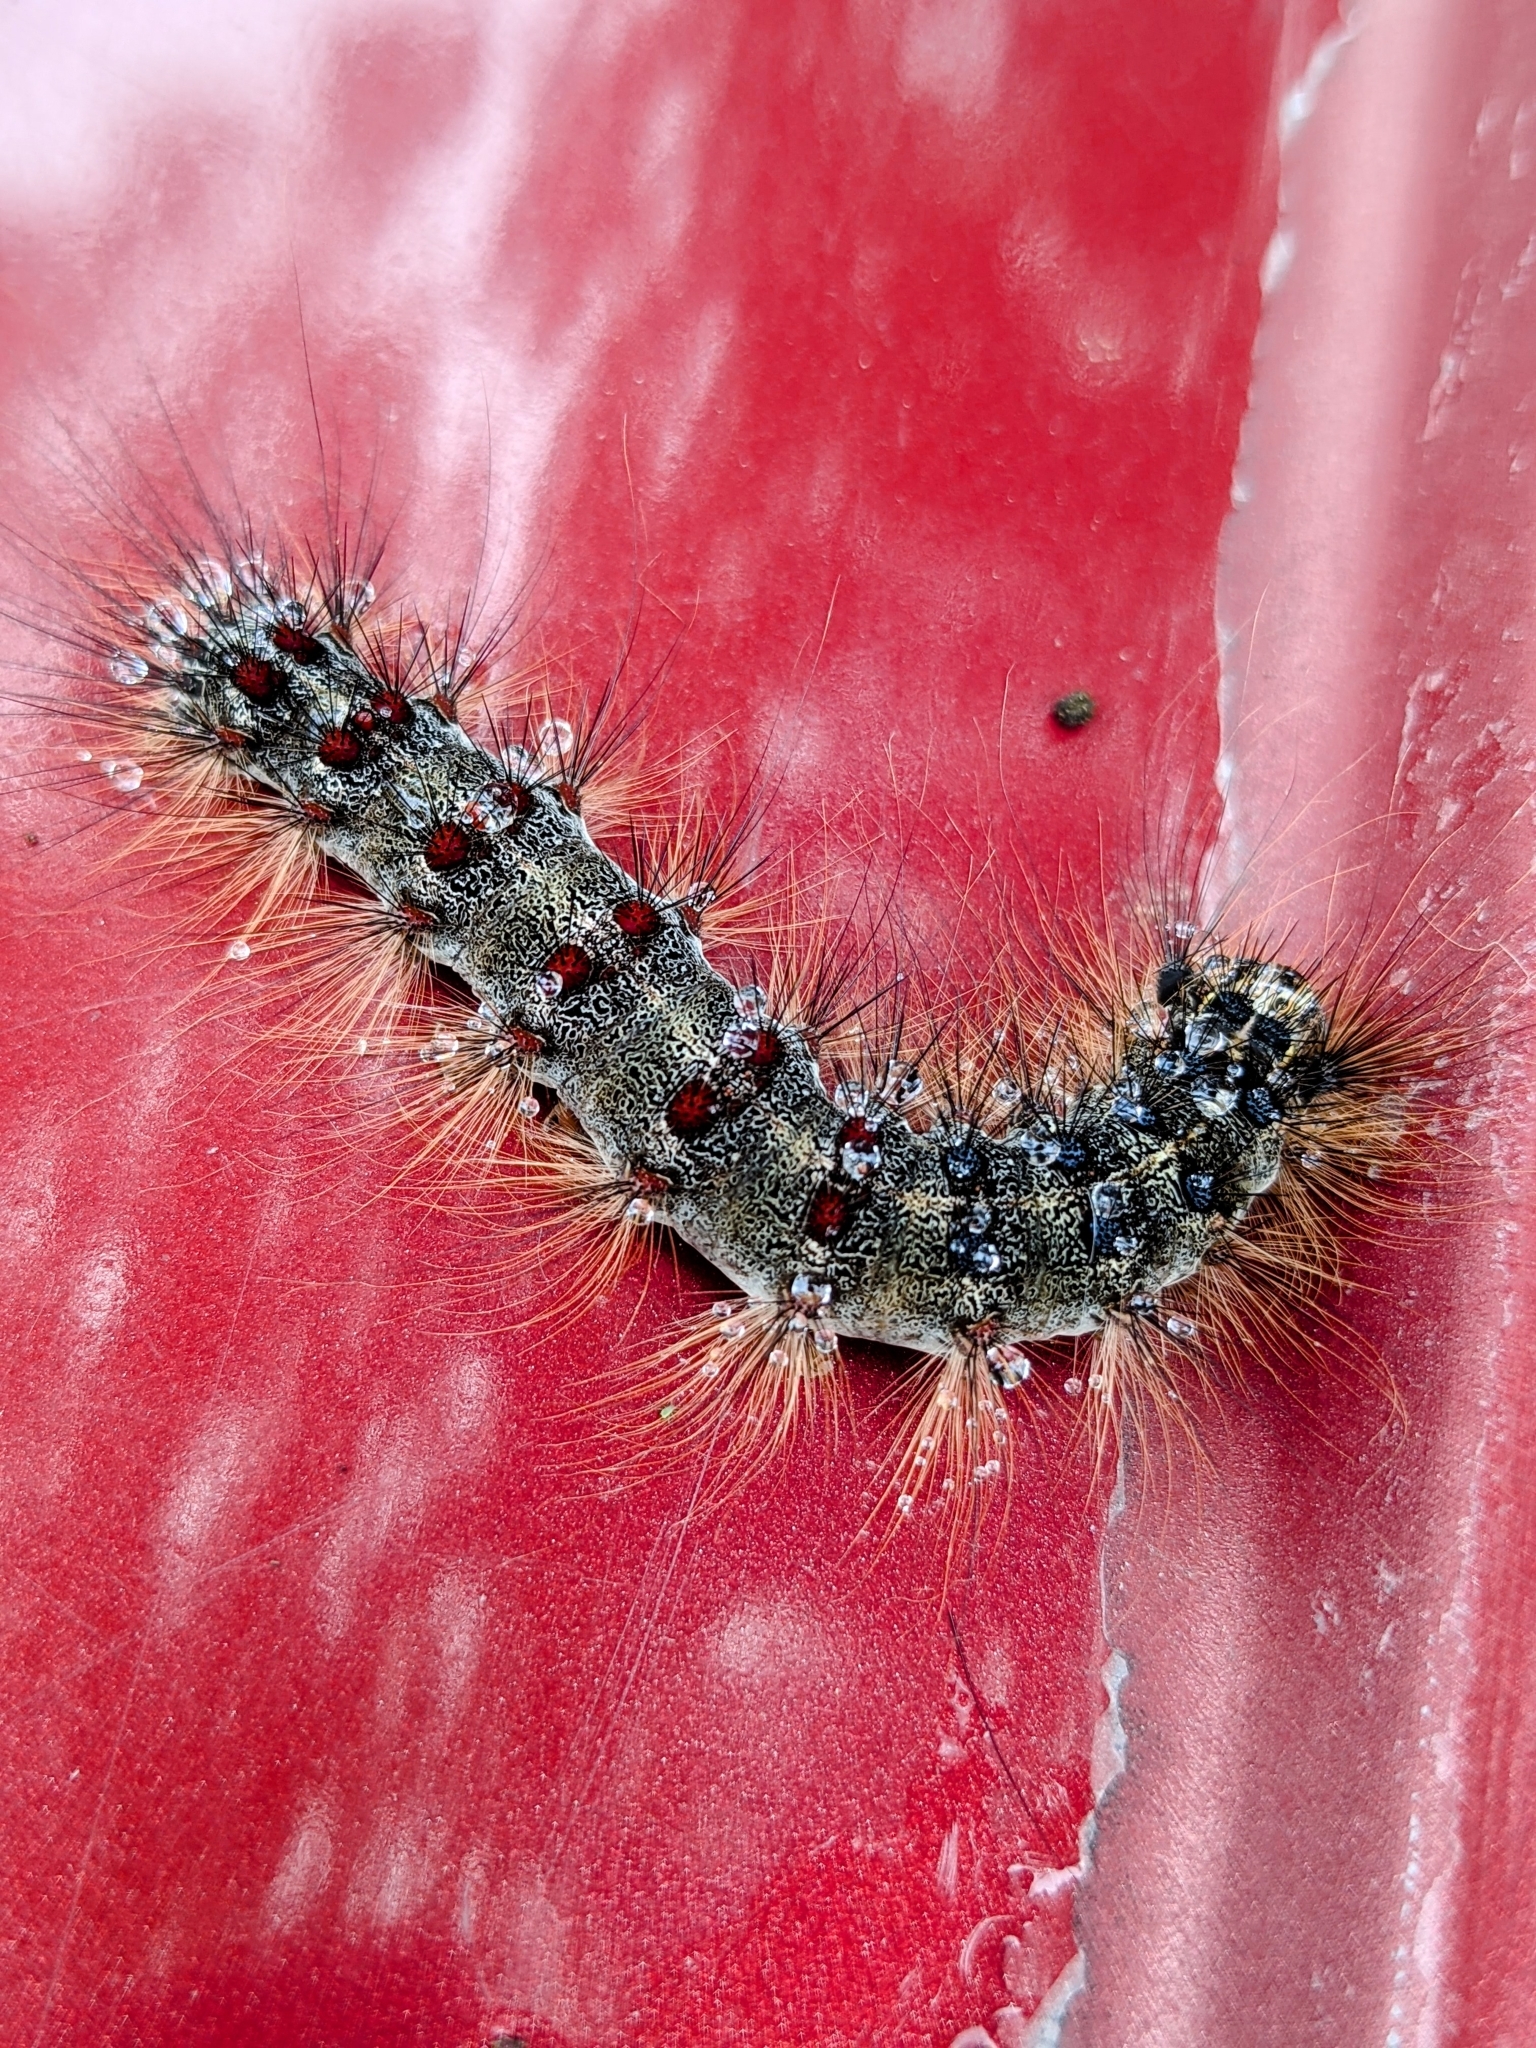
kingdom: Animalia
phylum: Arthropoda
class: Insecta
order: Lepidoptera
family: Erebidae
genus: Lymantria
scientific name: Lymantria dispar
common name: Gypsy moth
